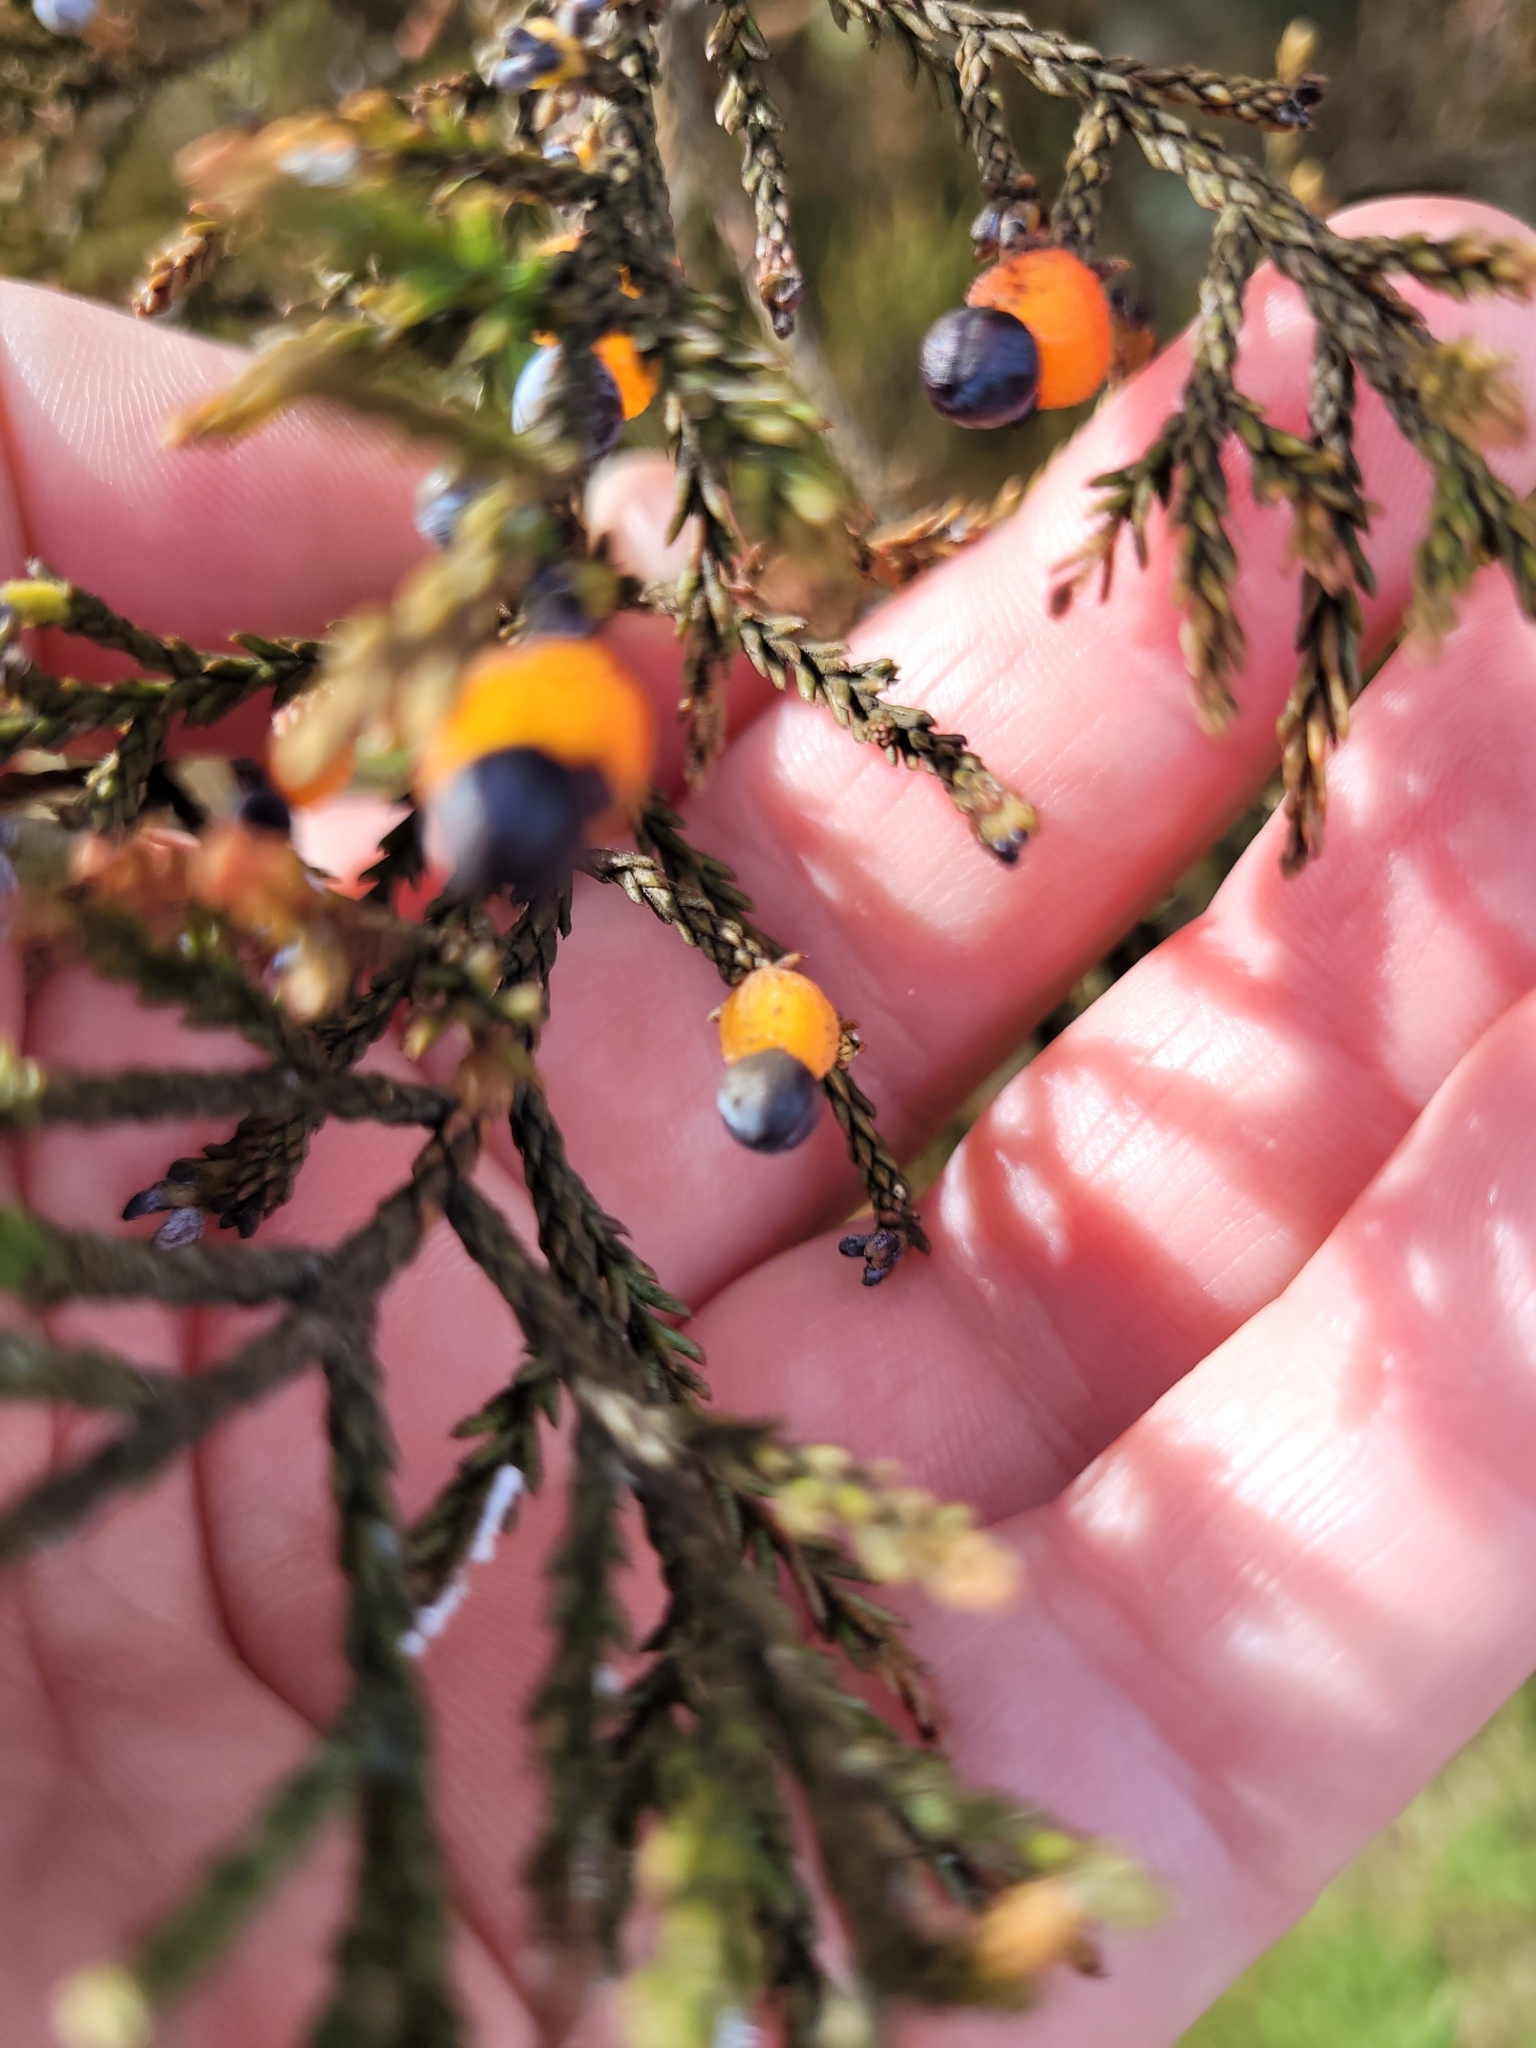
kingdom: Plantae
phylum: Tracheophyta
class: Pinopsida
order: Pinales
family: Podocarpaceae
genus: Dacrycarpus
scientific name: Dacrycarpus dacrydioides
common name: White pine
